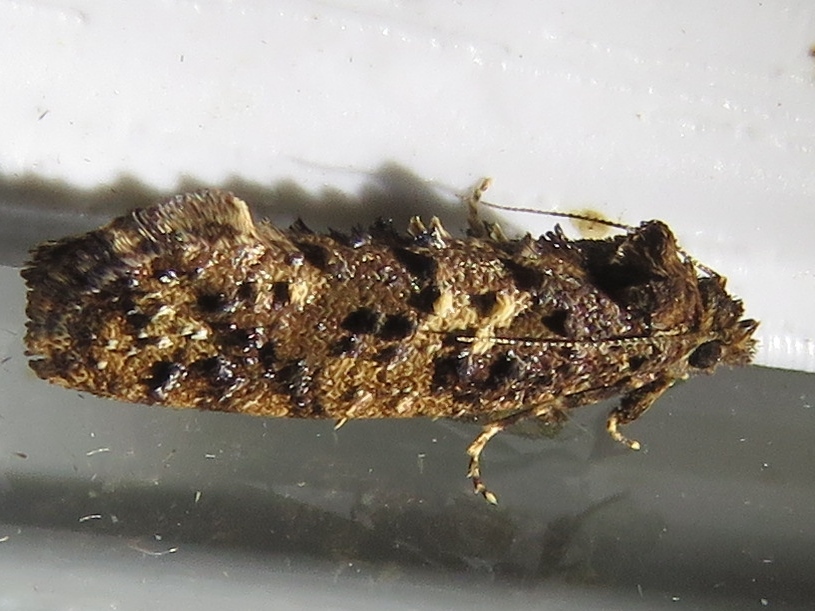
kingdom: Animalia
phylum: Arthropoda
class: Insecta
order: Lepidoptera
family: Tineidae
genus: Acrolophus
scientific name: Acrolophus cressoni
